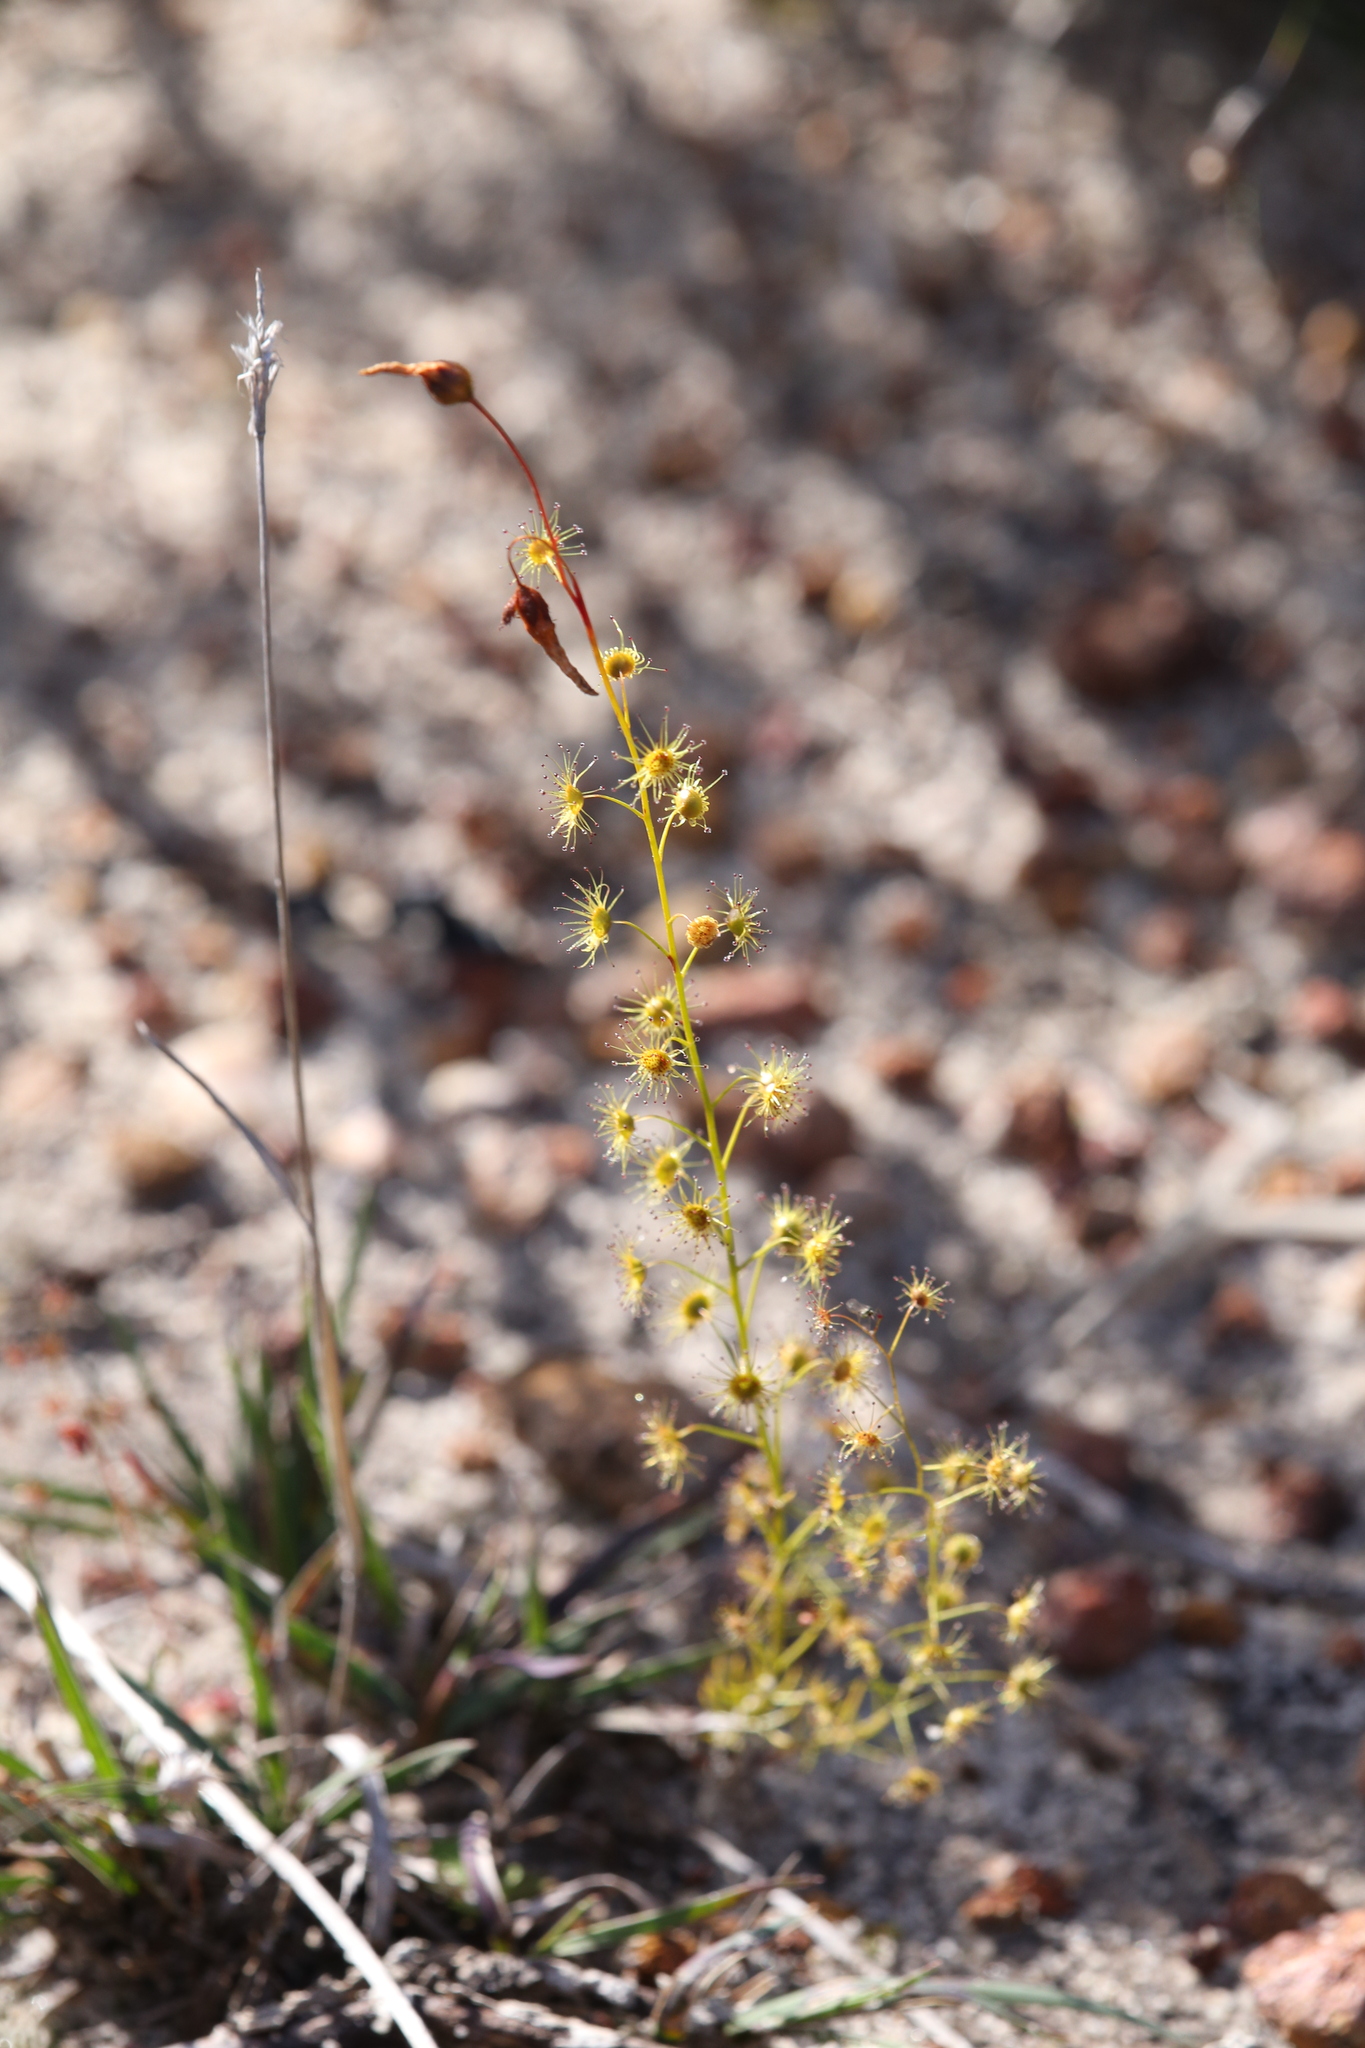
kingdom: Plantae
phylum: Tracheophyta
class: Magnoliopsida
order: Caryophyllales
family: Droseraceae
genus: Drosera
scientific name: Drosera marchantii
